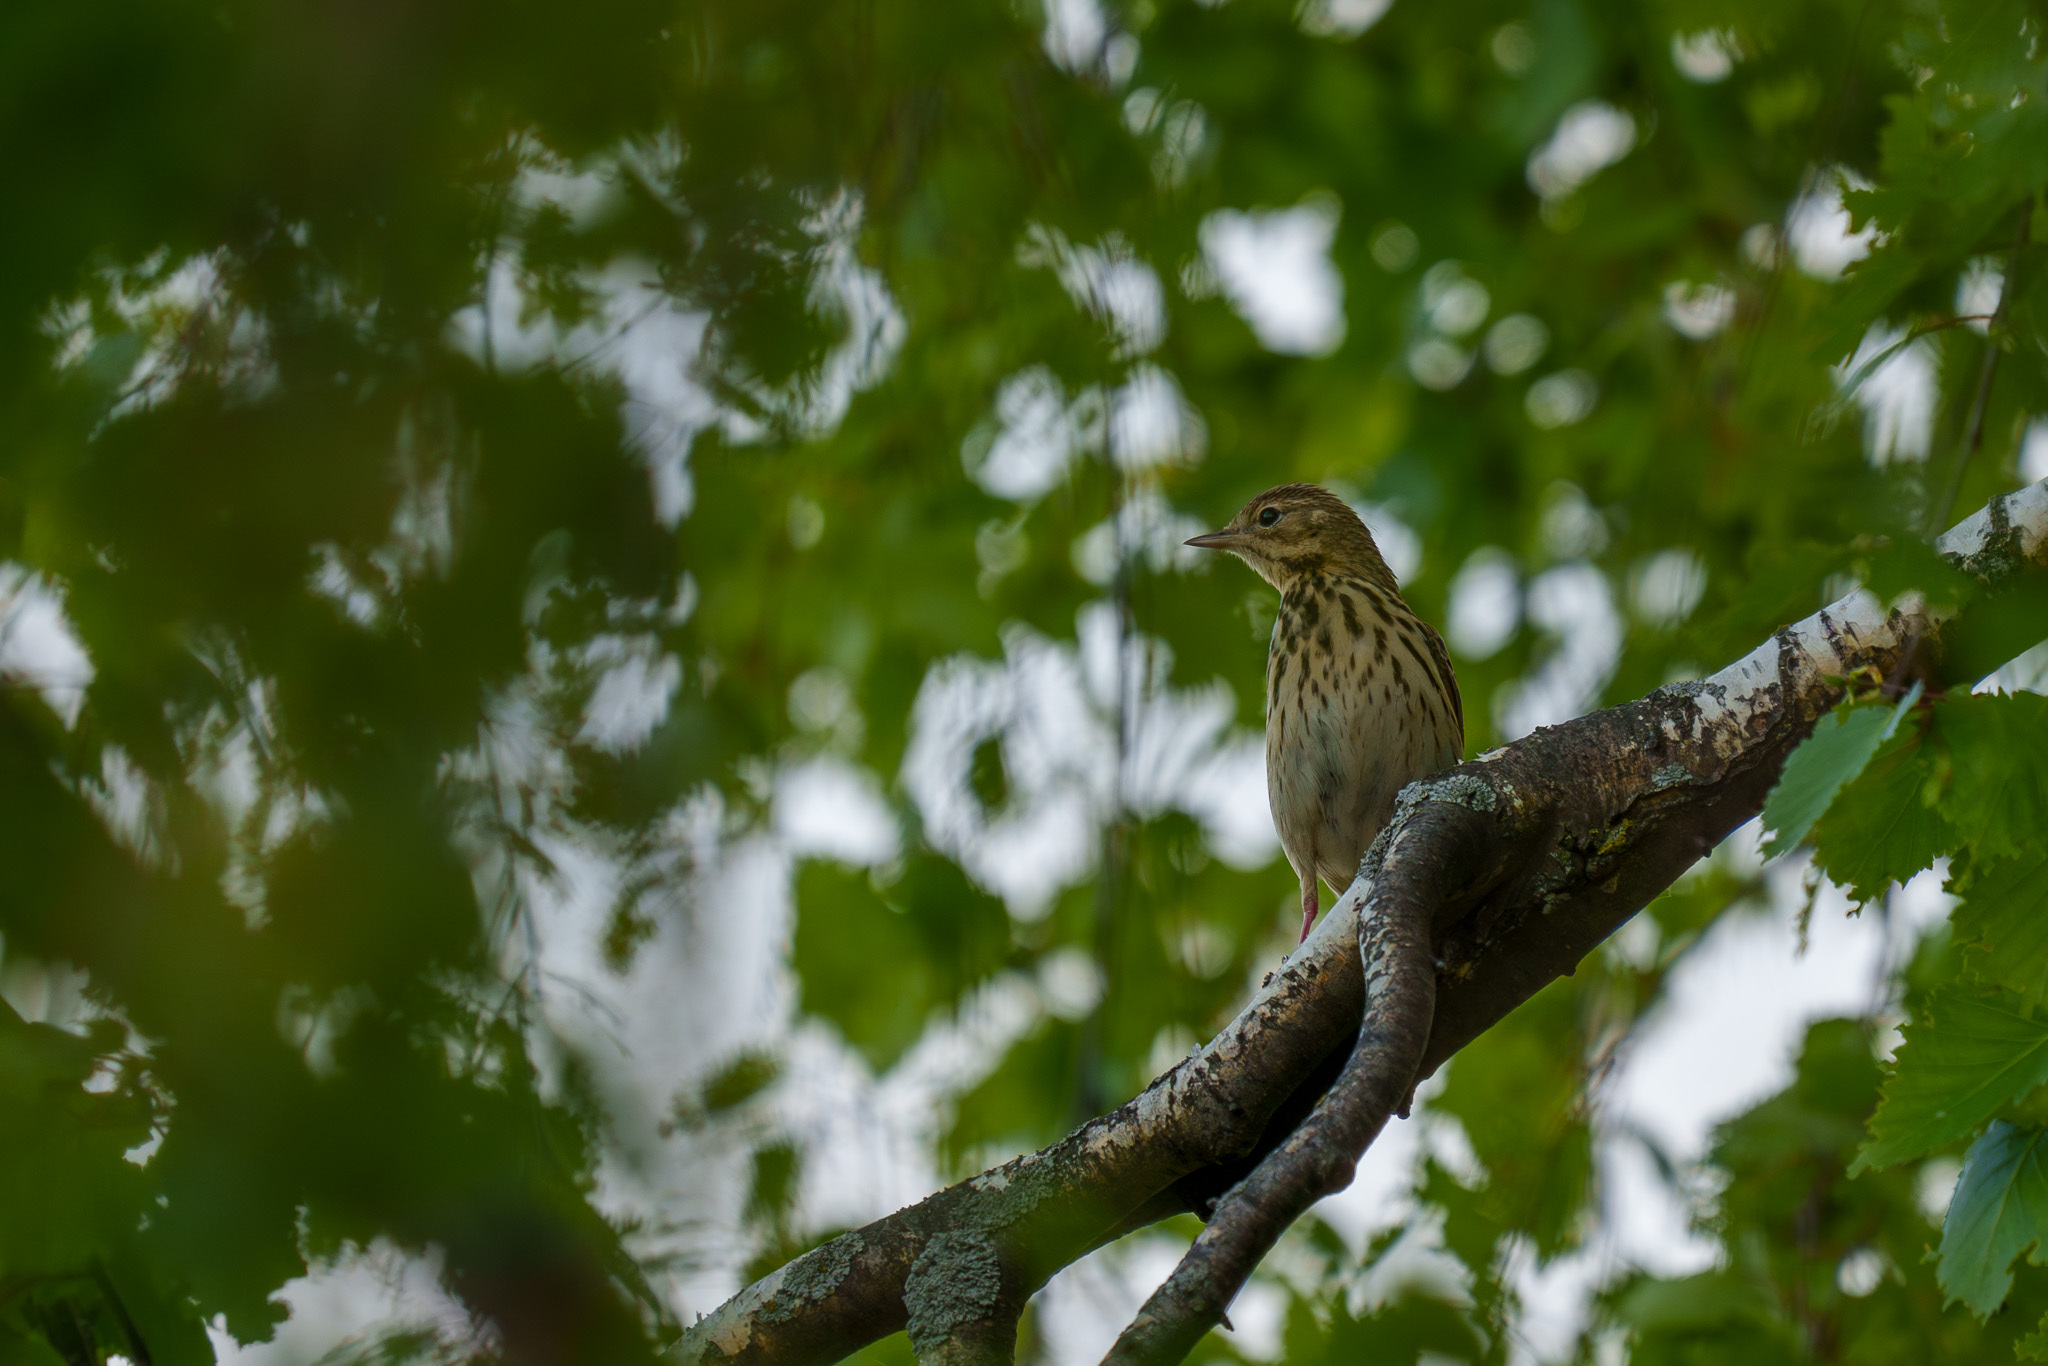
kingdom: Animalia
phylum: Chordata
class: Aves
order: Passeriformes
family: Motacillidae
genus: Anthus
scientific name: Anthus trivialis
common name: Tree pipit
